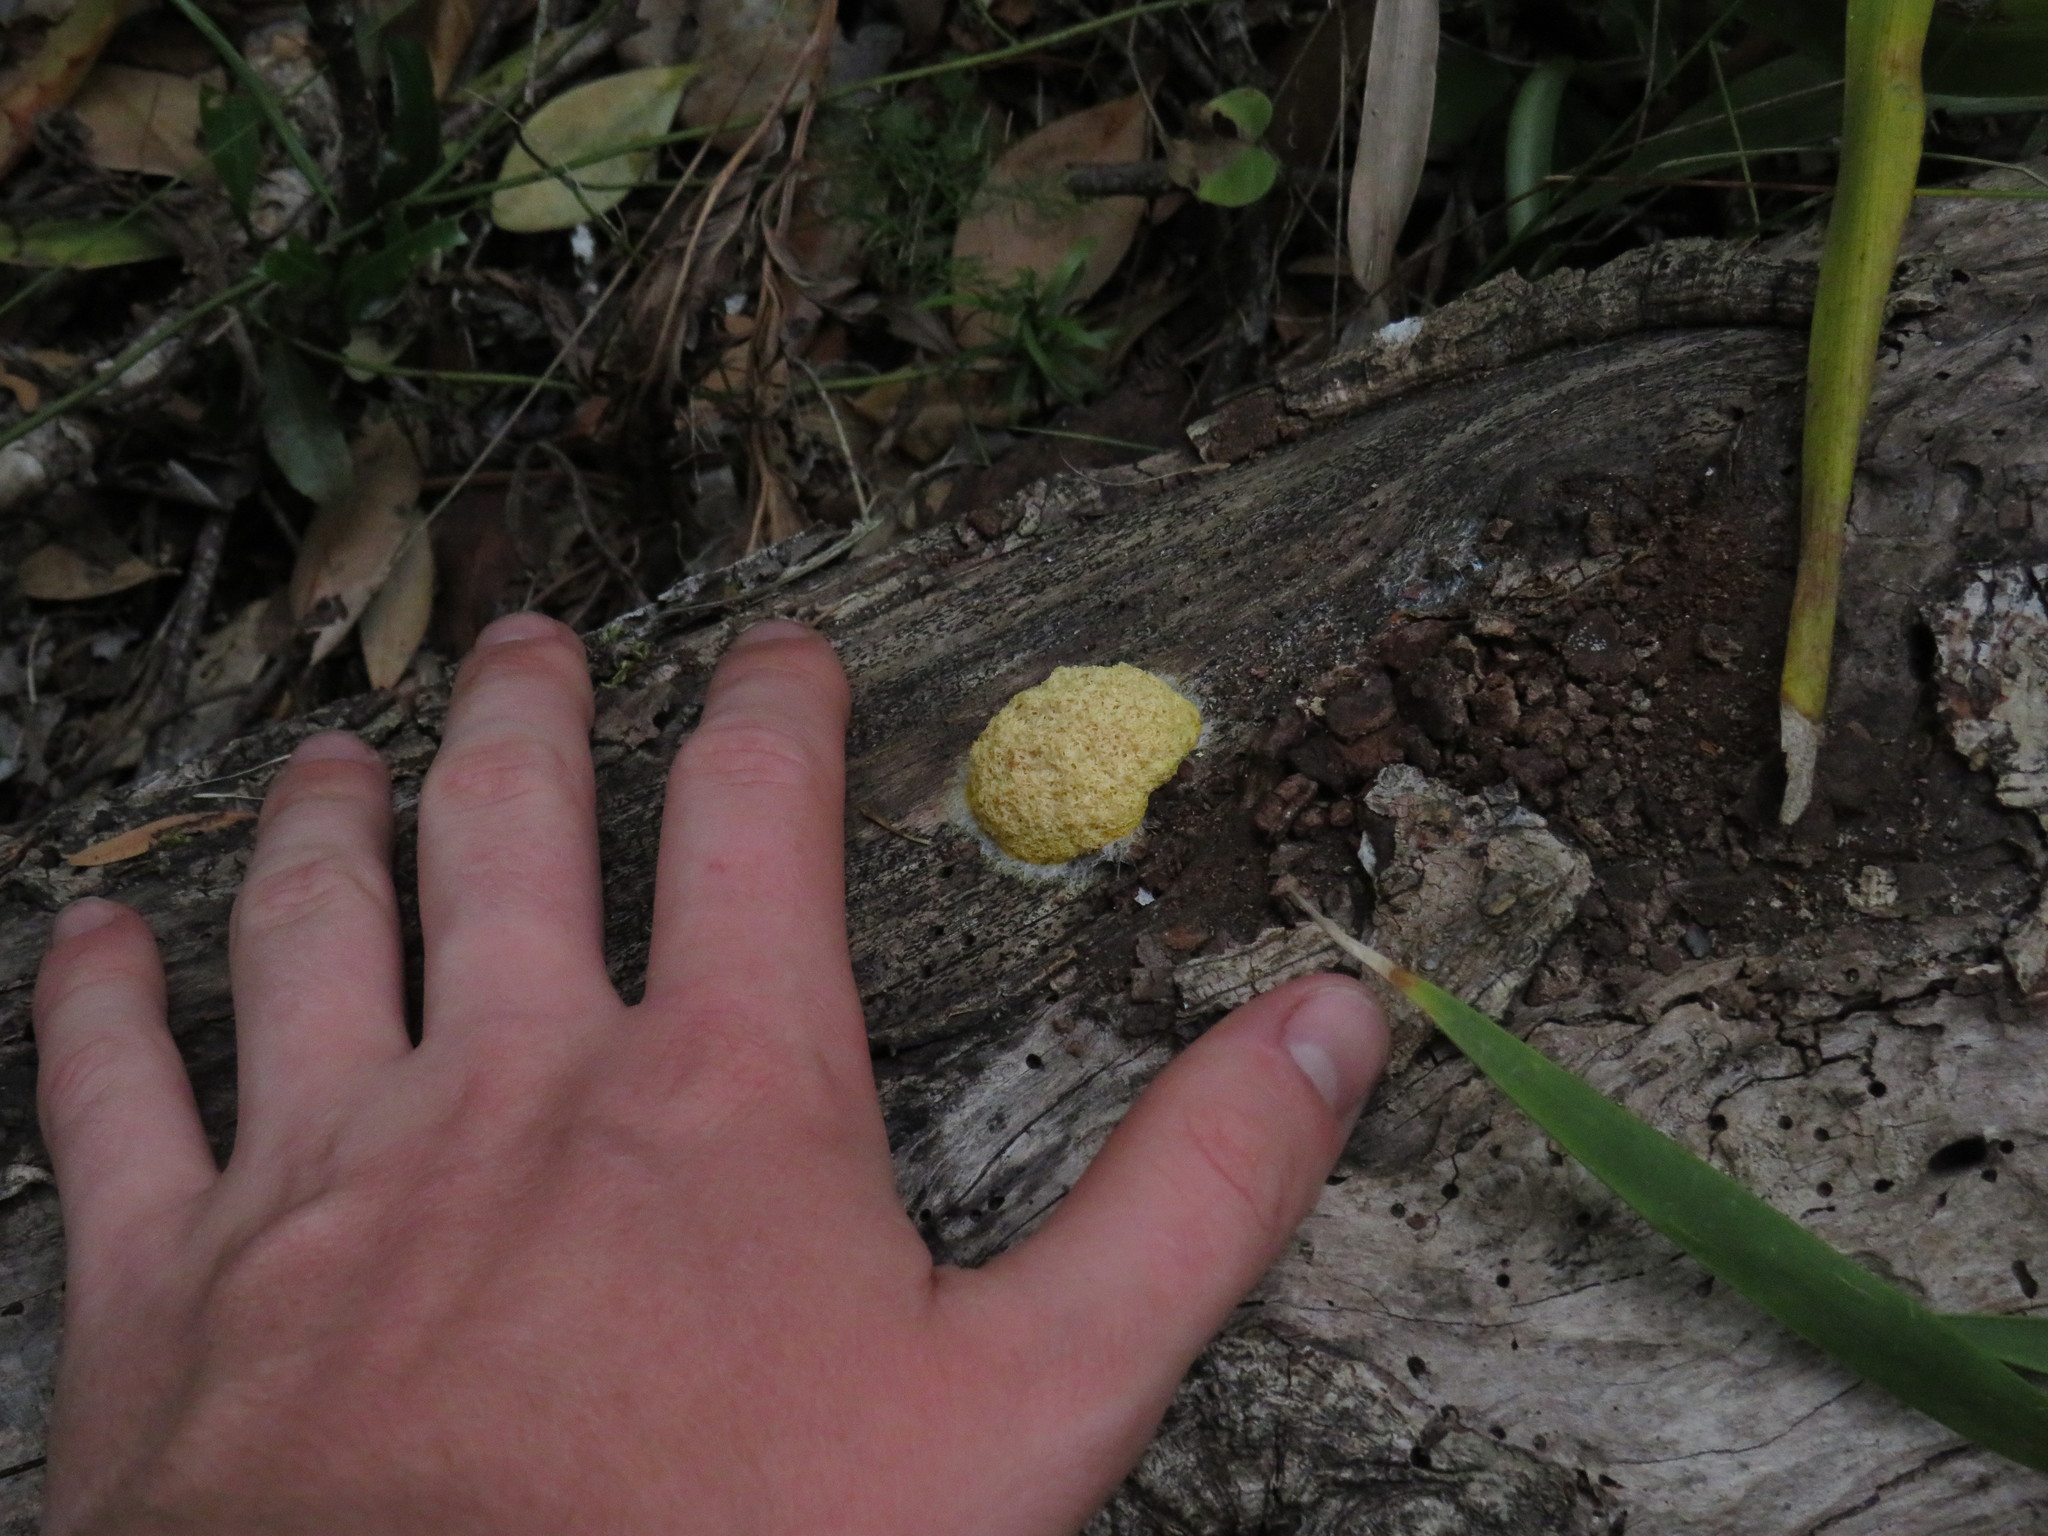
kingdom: Protozoa
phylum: Mycetozoa
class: Myxomycetes
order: Physarales
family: Physaraceae
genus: Fuligo
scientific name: Fuligo septica
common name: Dog vomit slime mold
